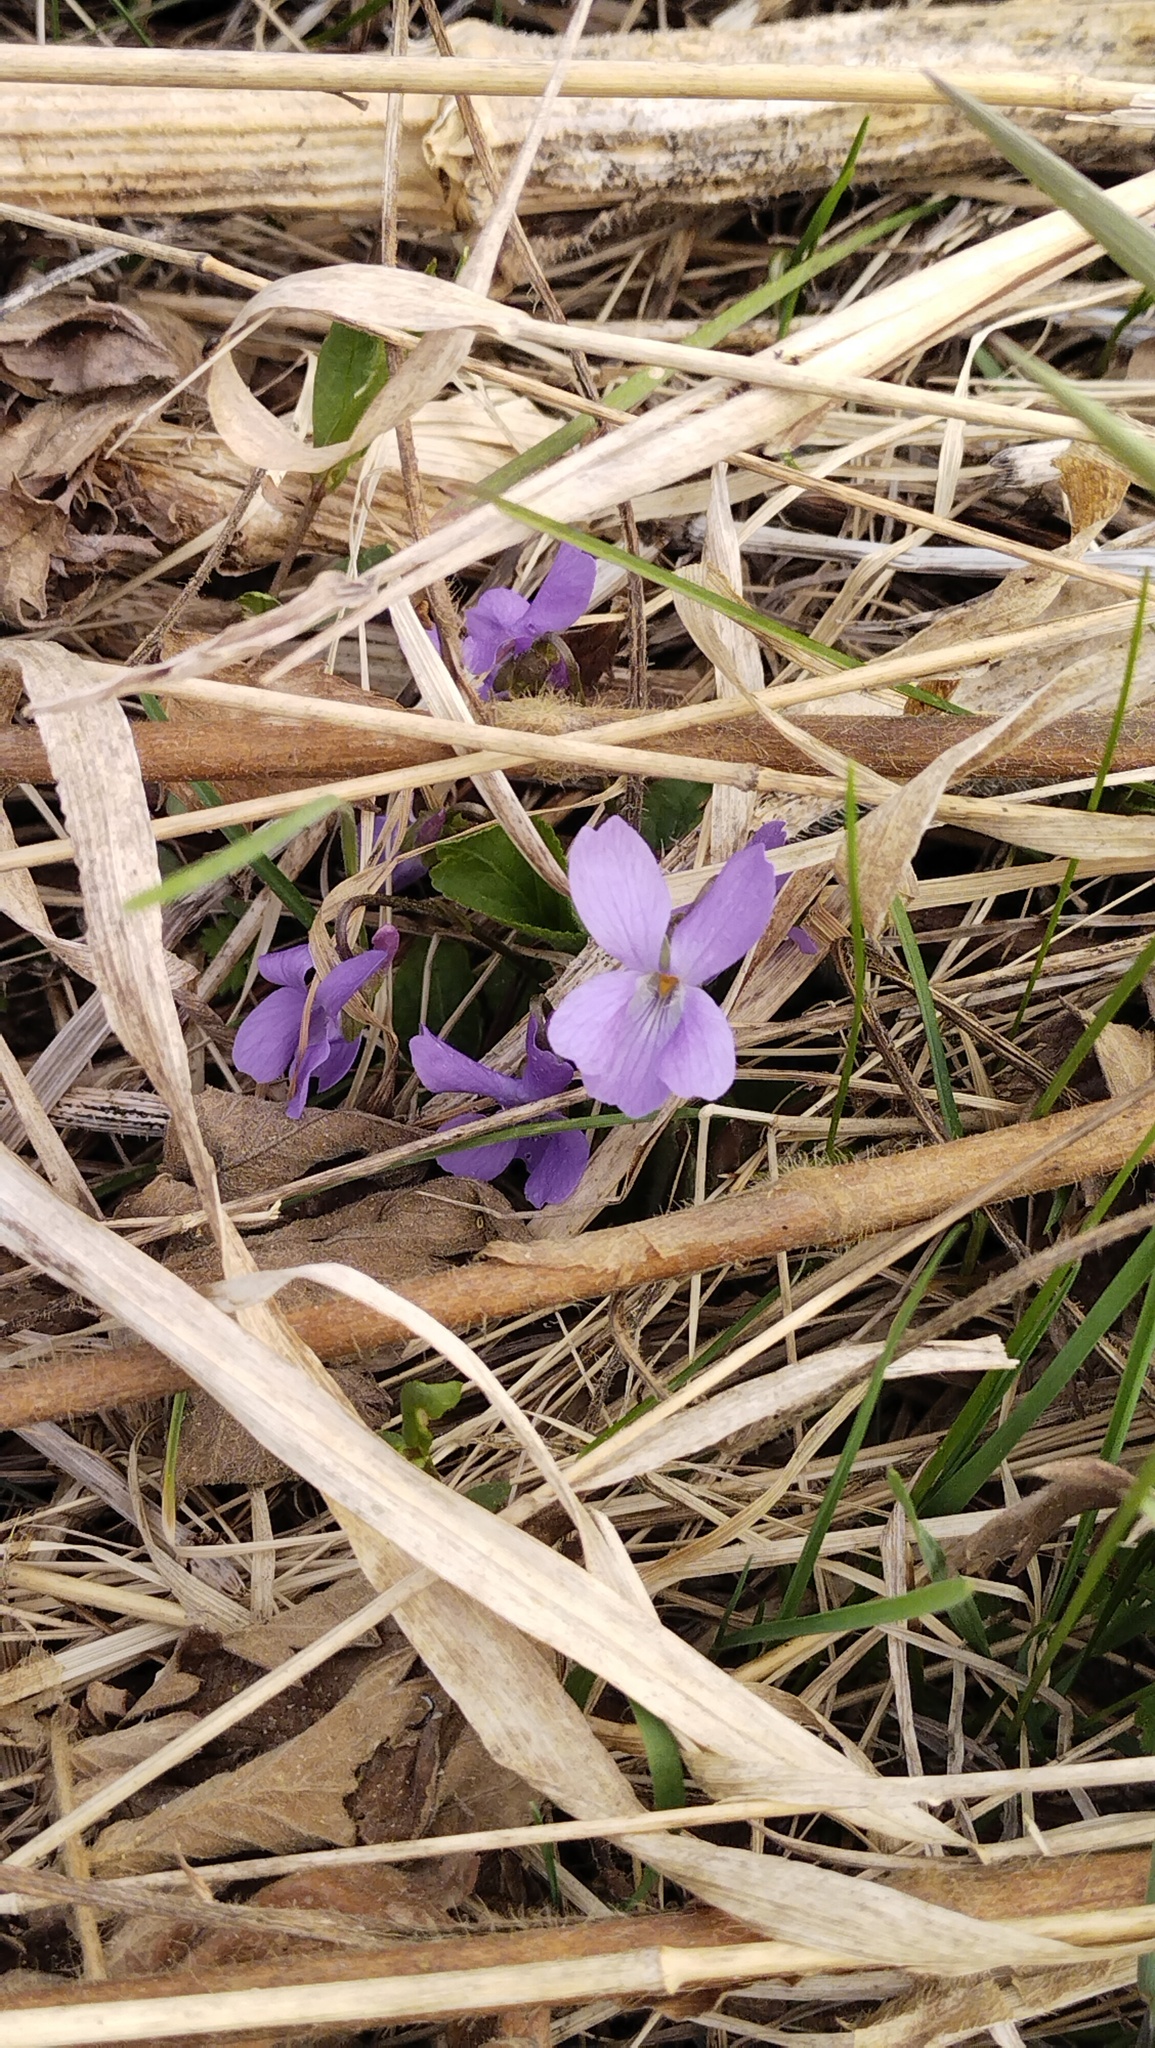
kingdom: Plantae
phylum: Tracheophyta
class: Magnoliopsida
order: Malpighiales
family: Violaceae
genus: Viola
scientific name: Viola hirta
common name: Hairy violet
